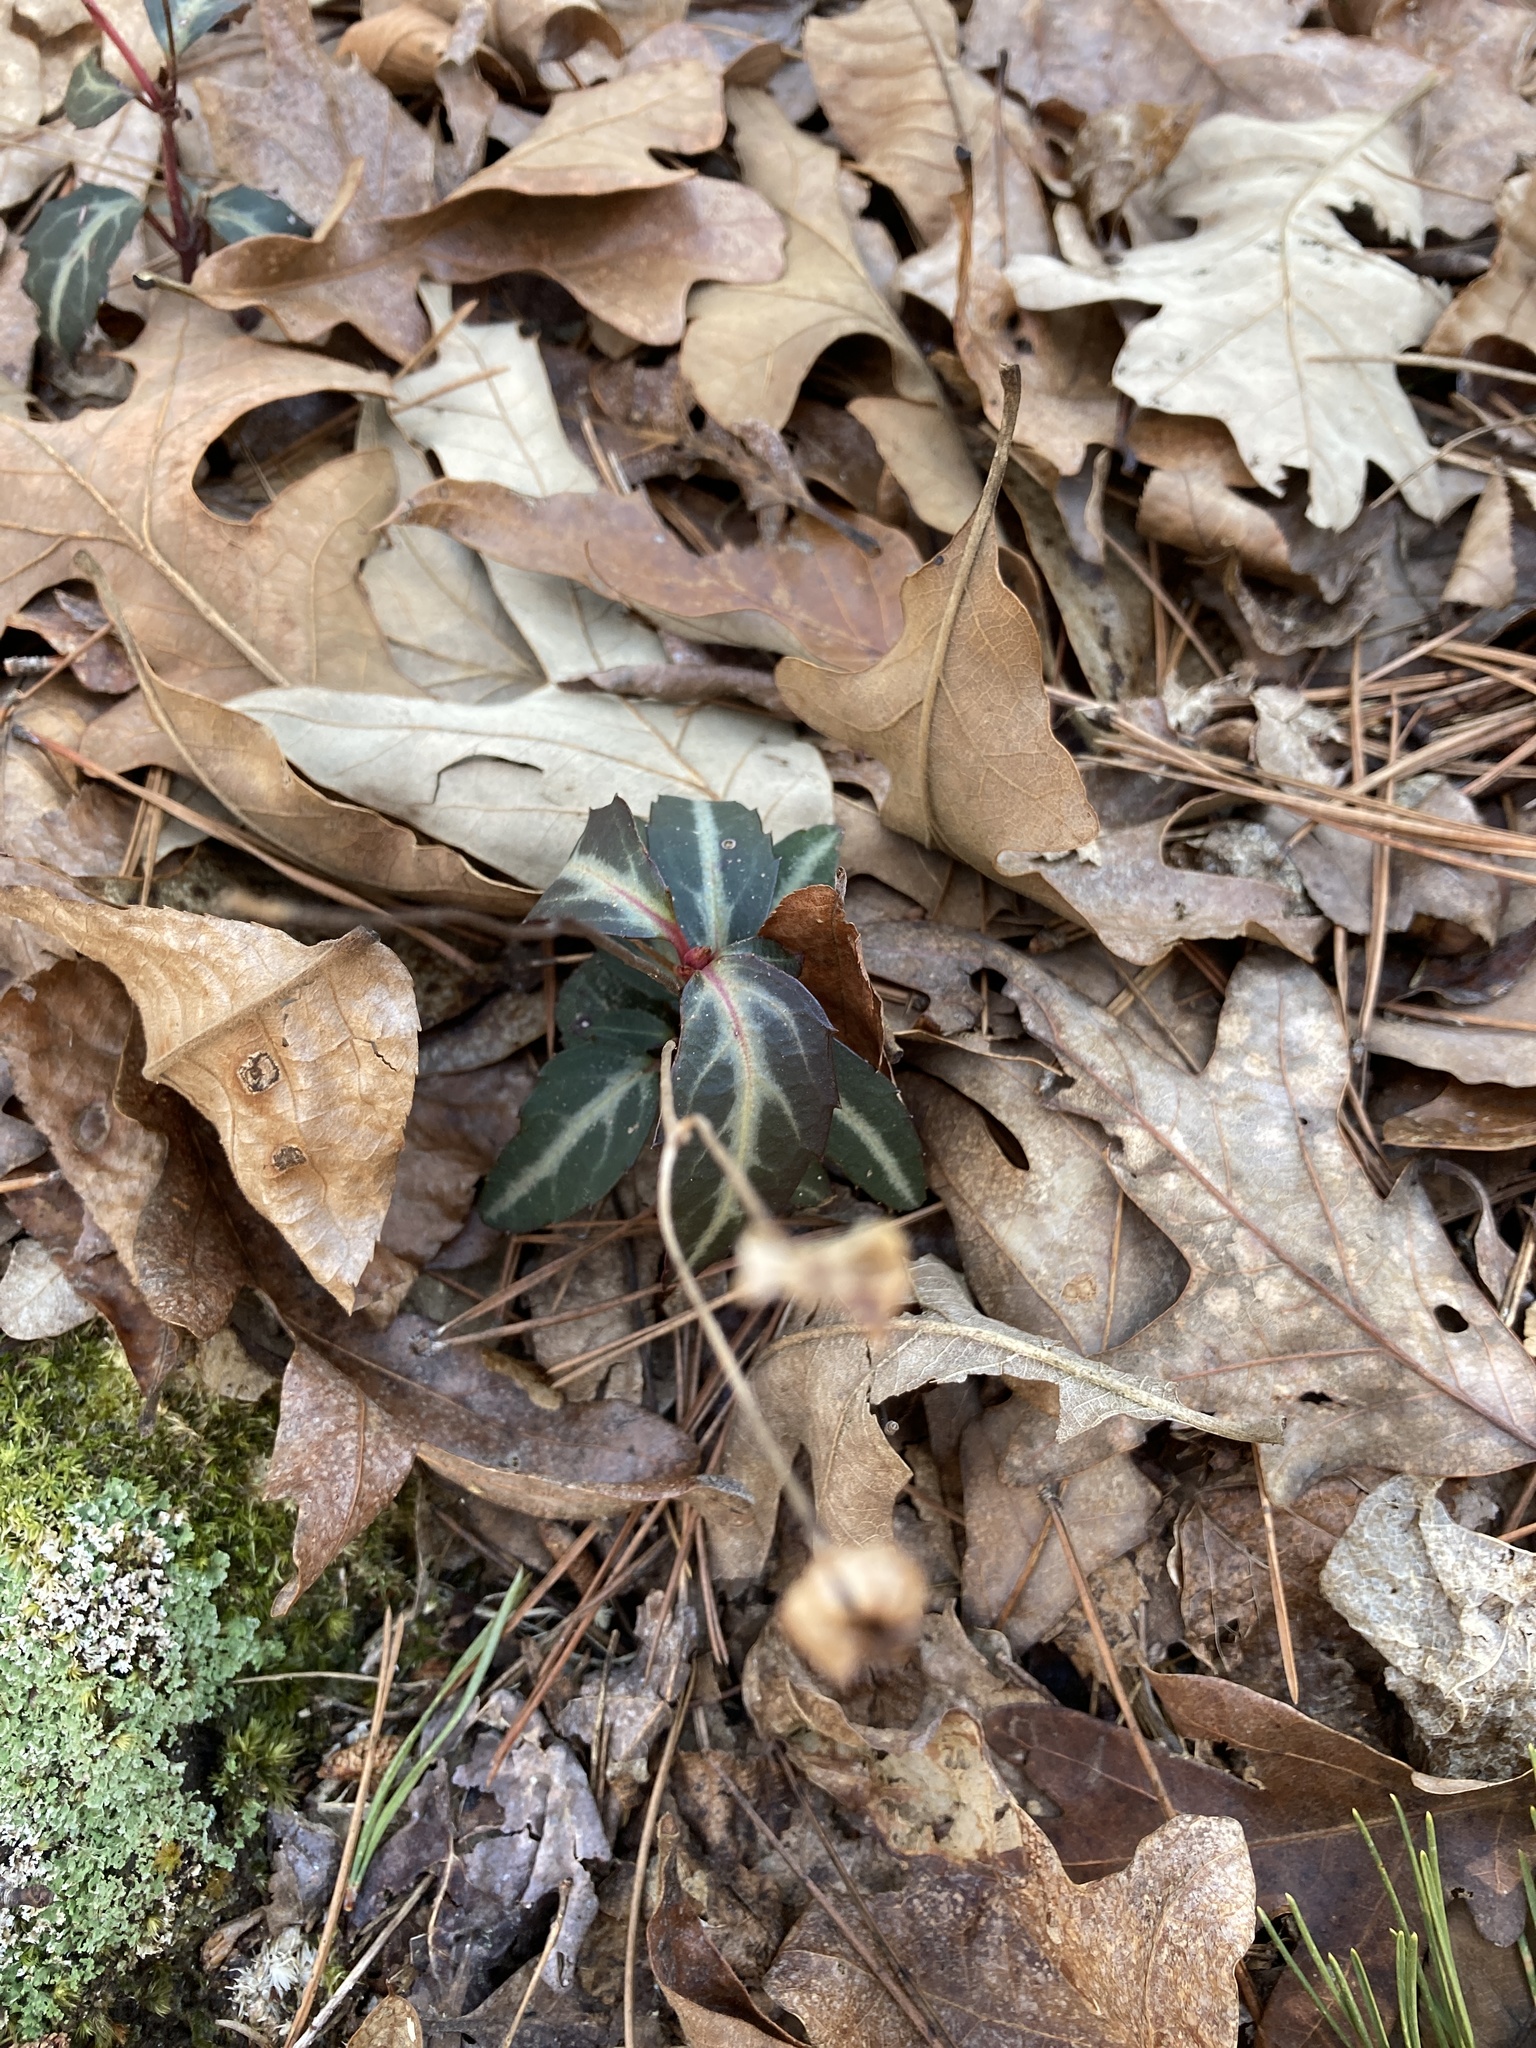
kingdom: Plantae
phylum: Tracheophyta
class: Magnoliopsida
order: Ericales
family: Ericaceae
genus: Chimaphila
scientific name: Chimaphila maculata
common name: Spotted pipsissewa
